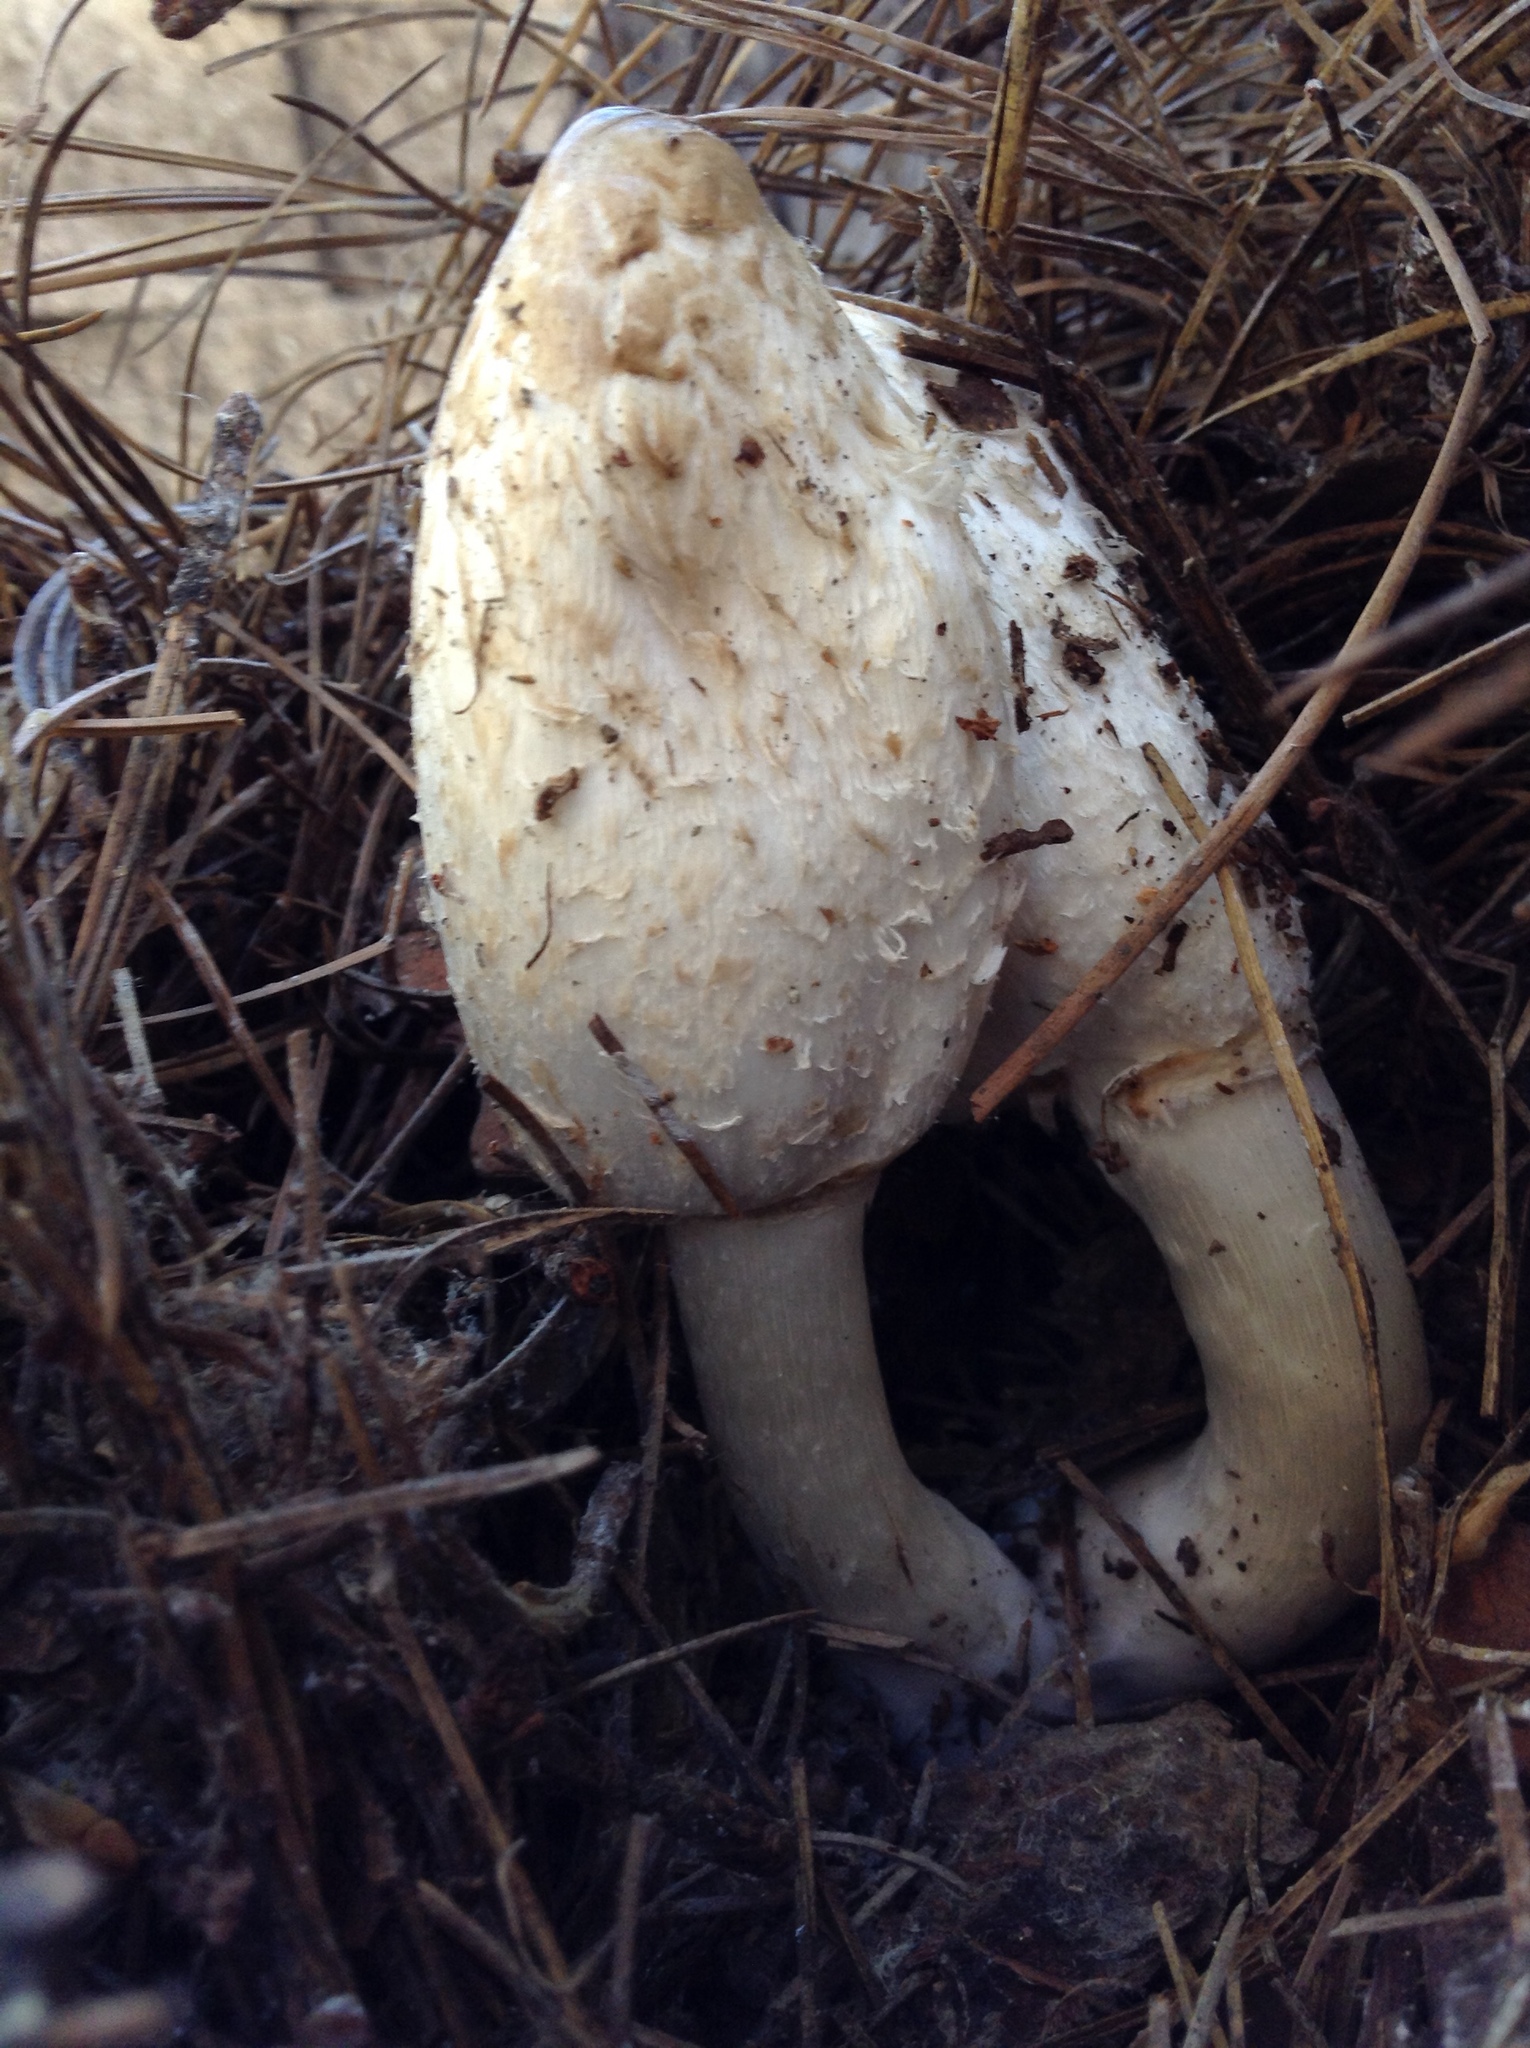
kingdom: Fungi
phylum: Basidiomycota
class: Agaricomycetes
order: Agaricales
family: Agaricaceae
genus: Coprinus
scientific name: Coprinus comatus
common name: Lawyer's wig
